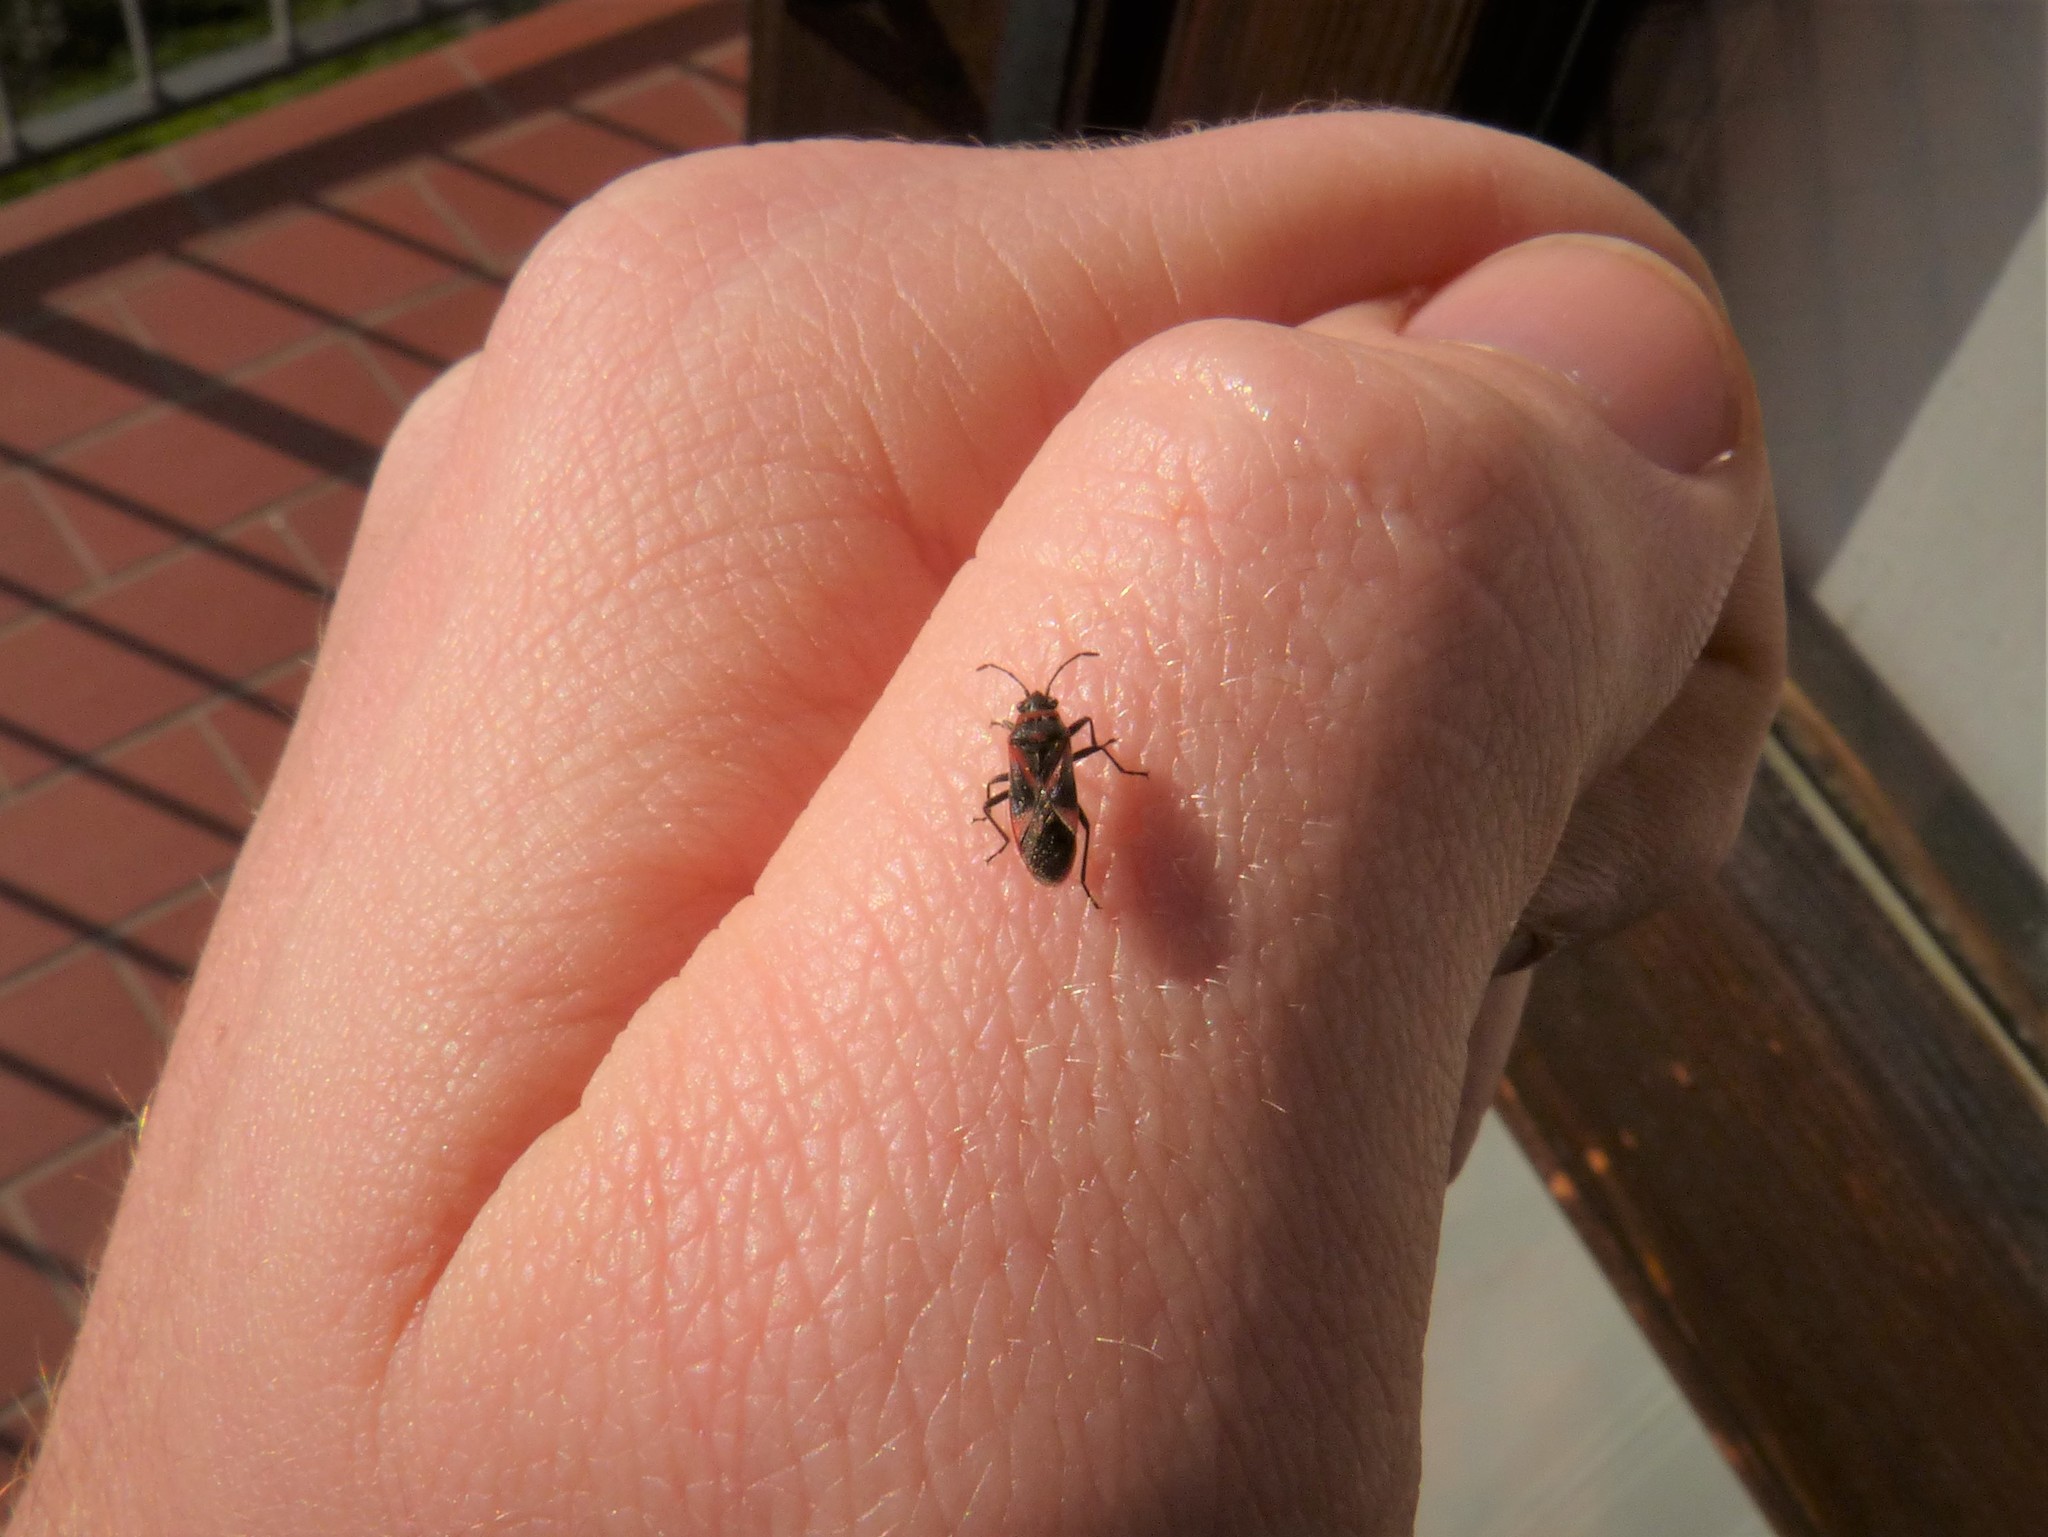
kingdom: Animalia
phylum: Arthropoda
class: Insecta
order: Hemiptera
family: Lygaeidae
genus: Arocatus
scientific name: Arocatus roeselii
